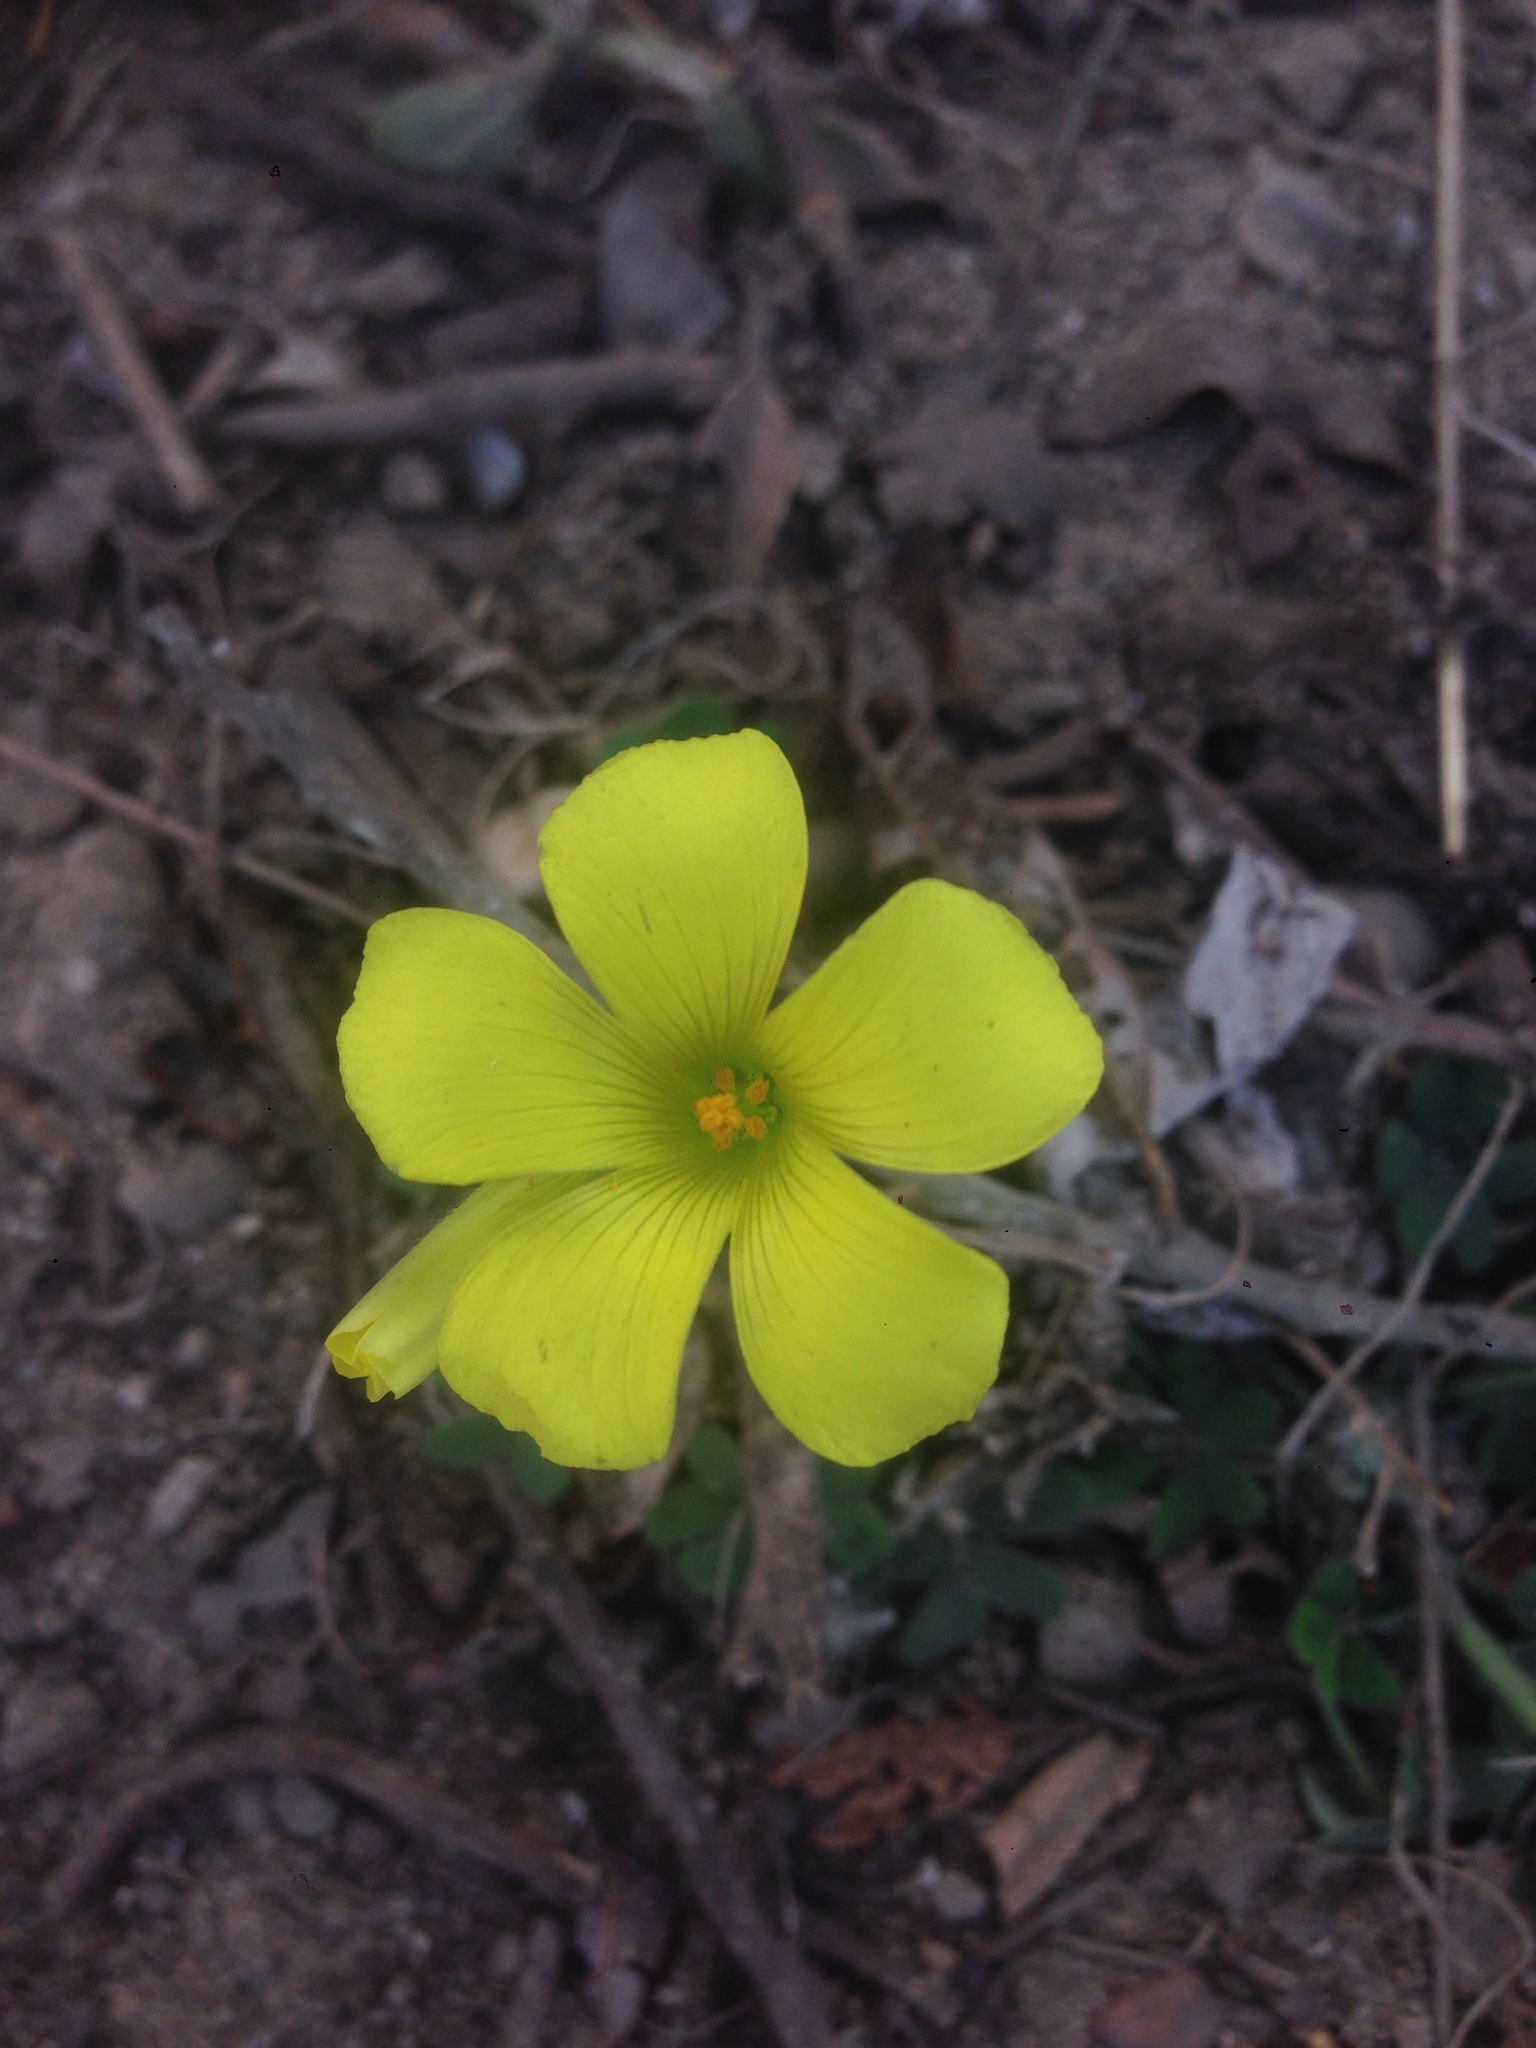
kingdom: Plantae
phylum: Tracheophyta
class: Magnoliopsida
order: Oxalidales
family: Oxalidaceae
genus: Oxalis
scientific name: Oxalis pes-caprae
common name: Bermuda-buttercup
